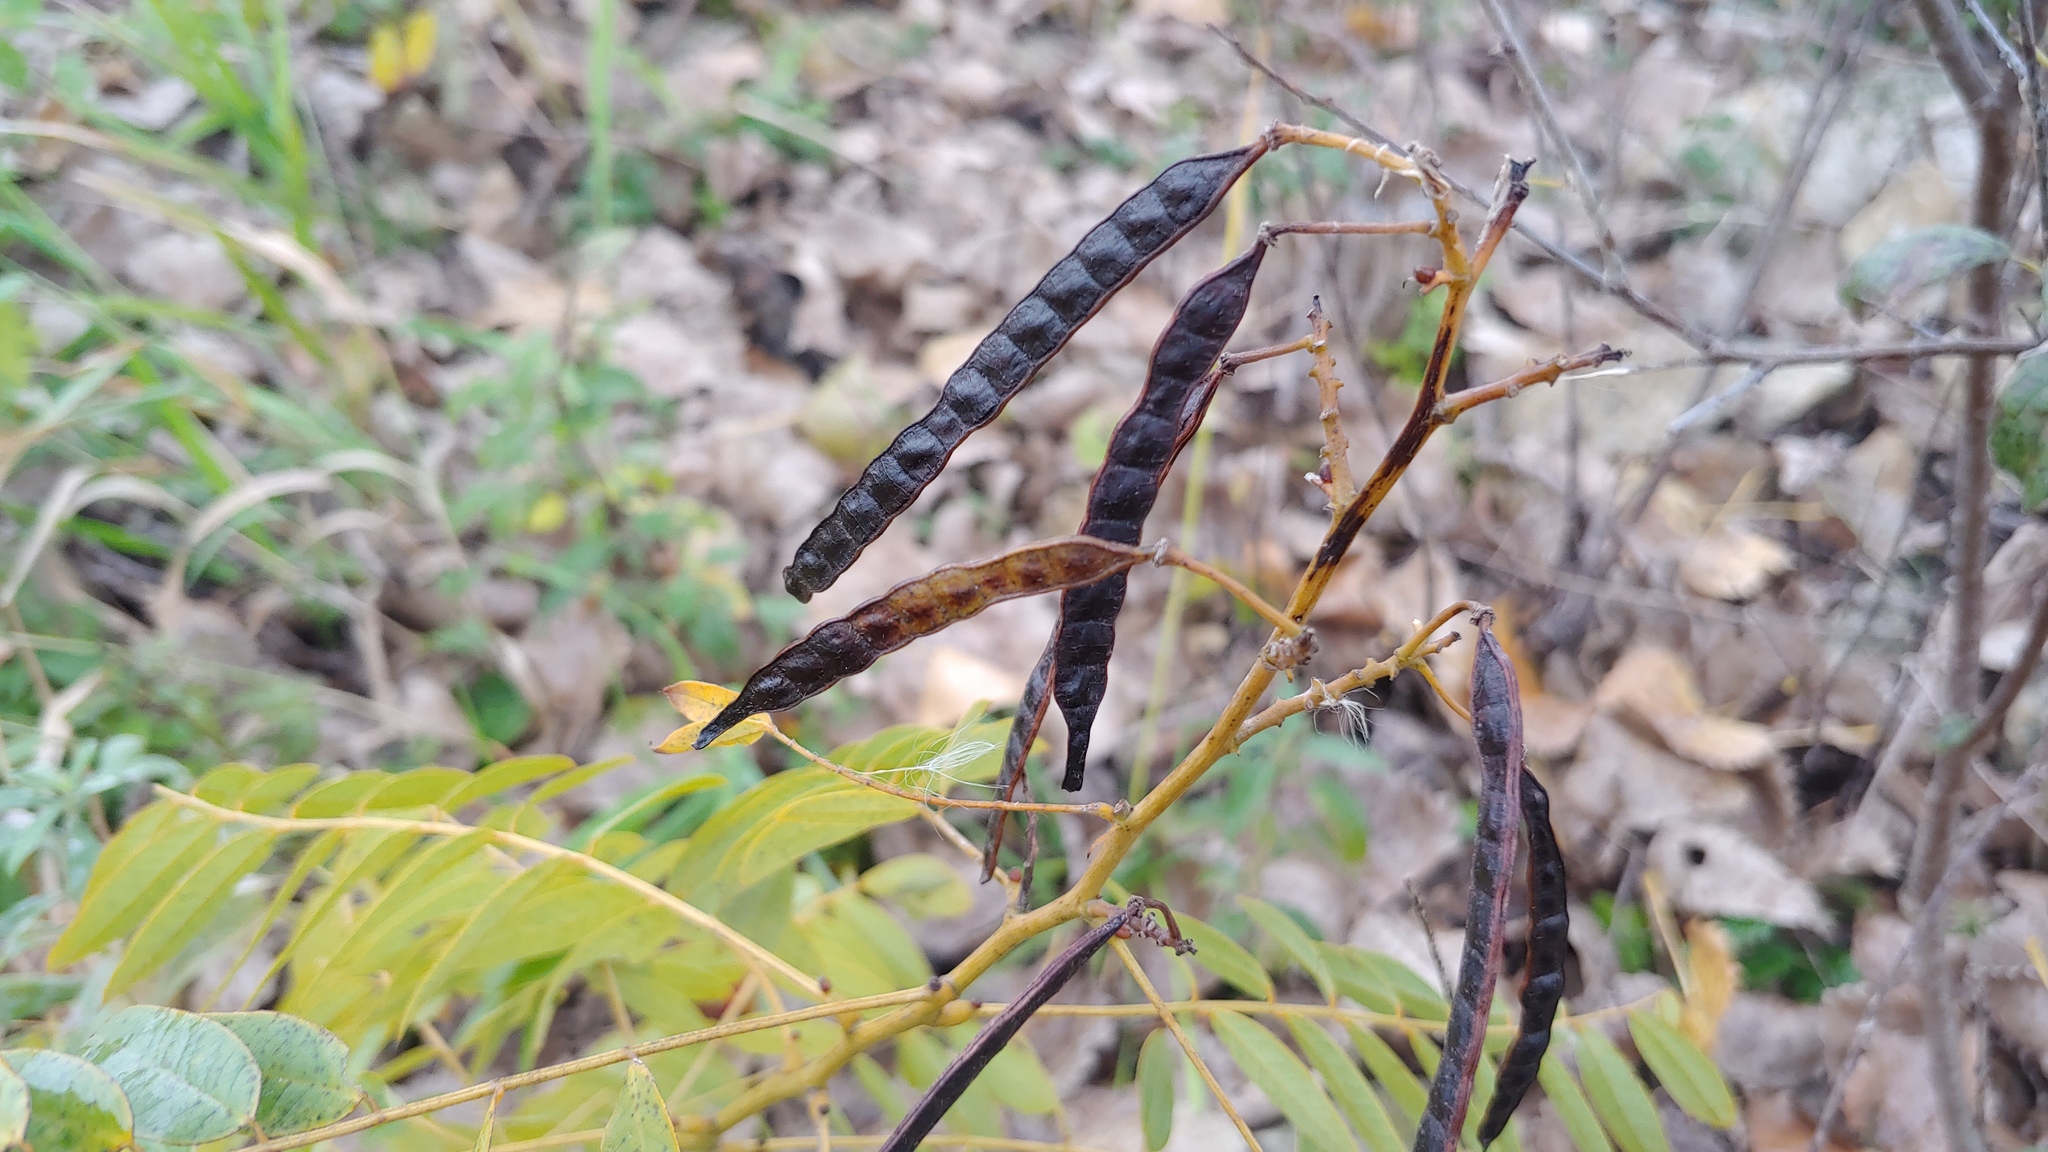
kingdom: Plantae
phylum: Tracheophyta
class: Magnoliopsida
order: Fabales
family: Fabaceae
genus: Senna
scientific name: Senna hebecarpa
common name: Wild senna
